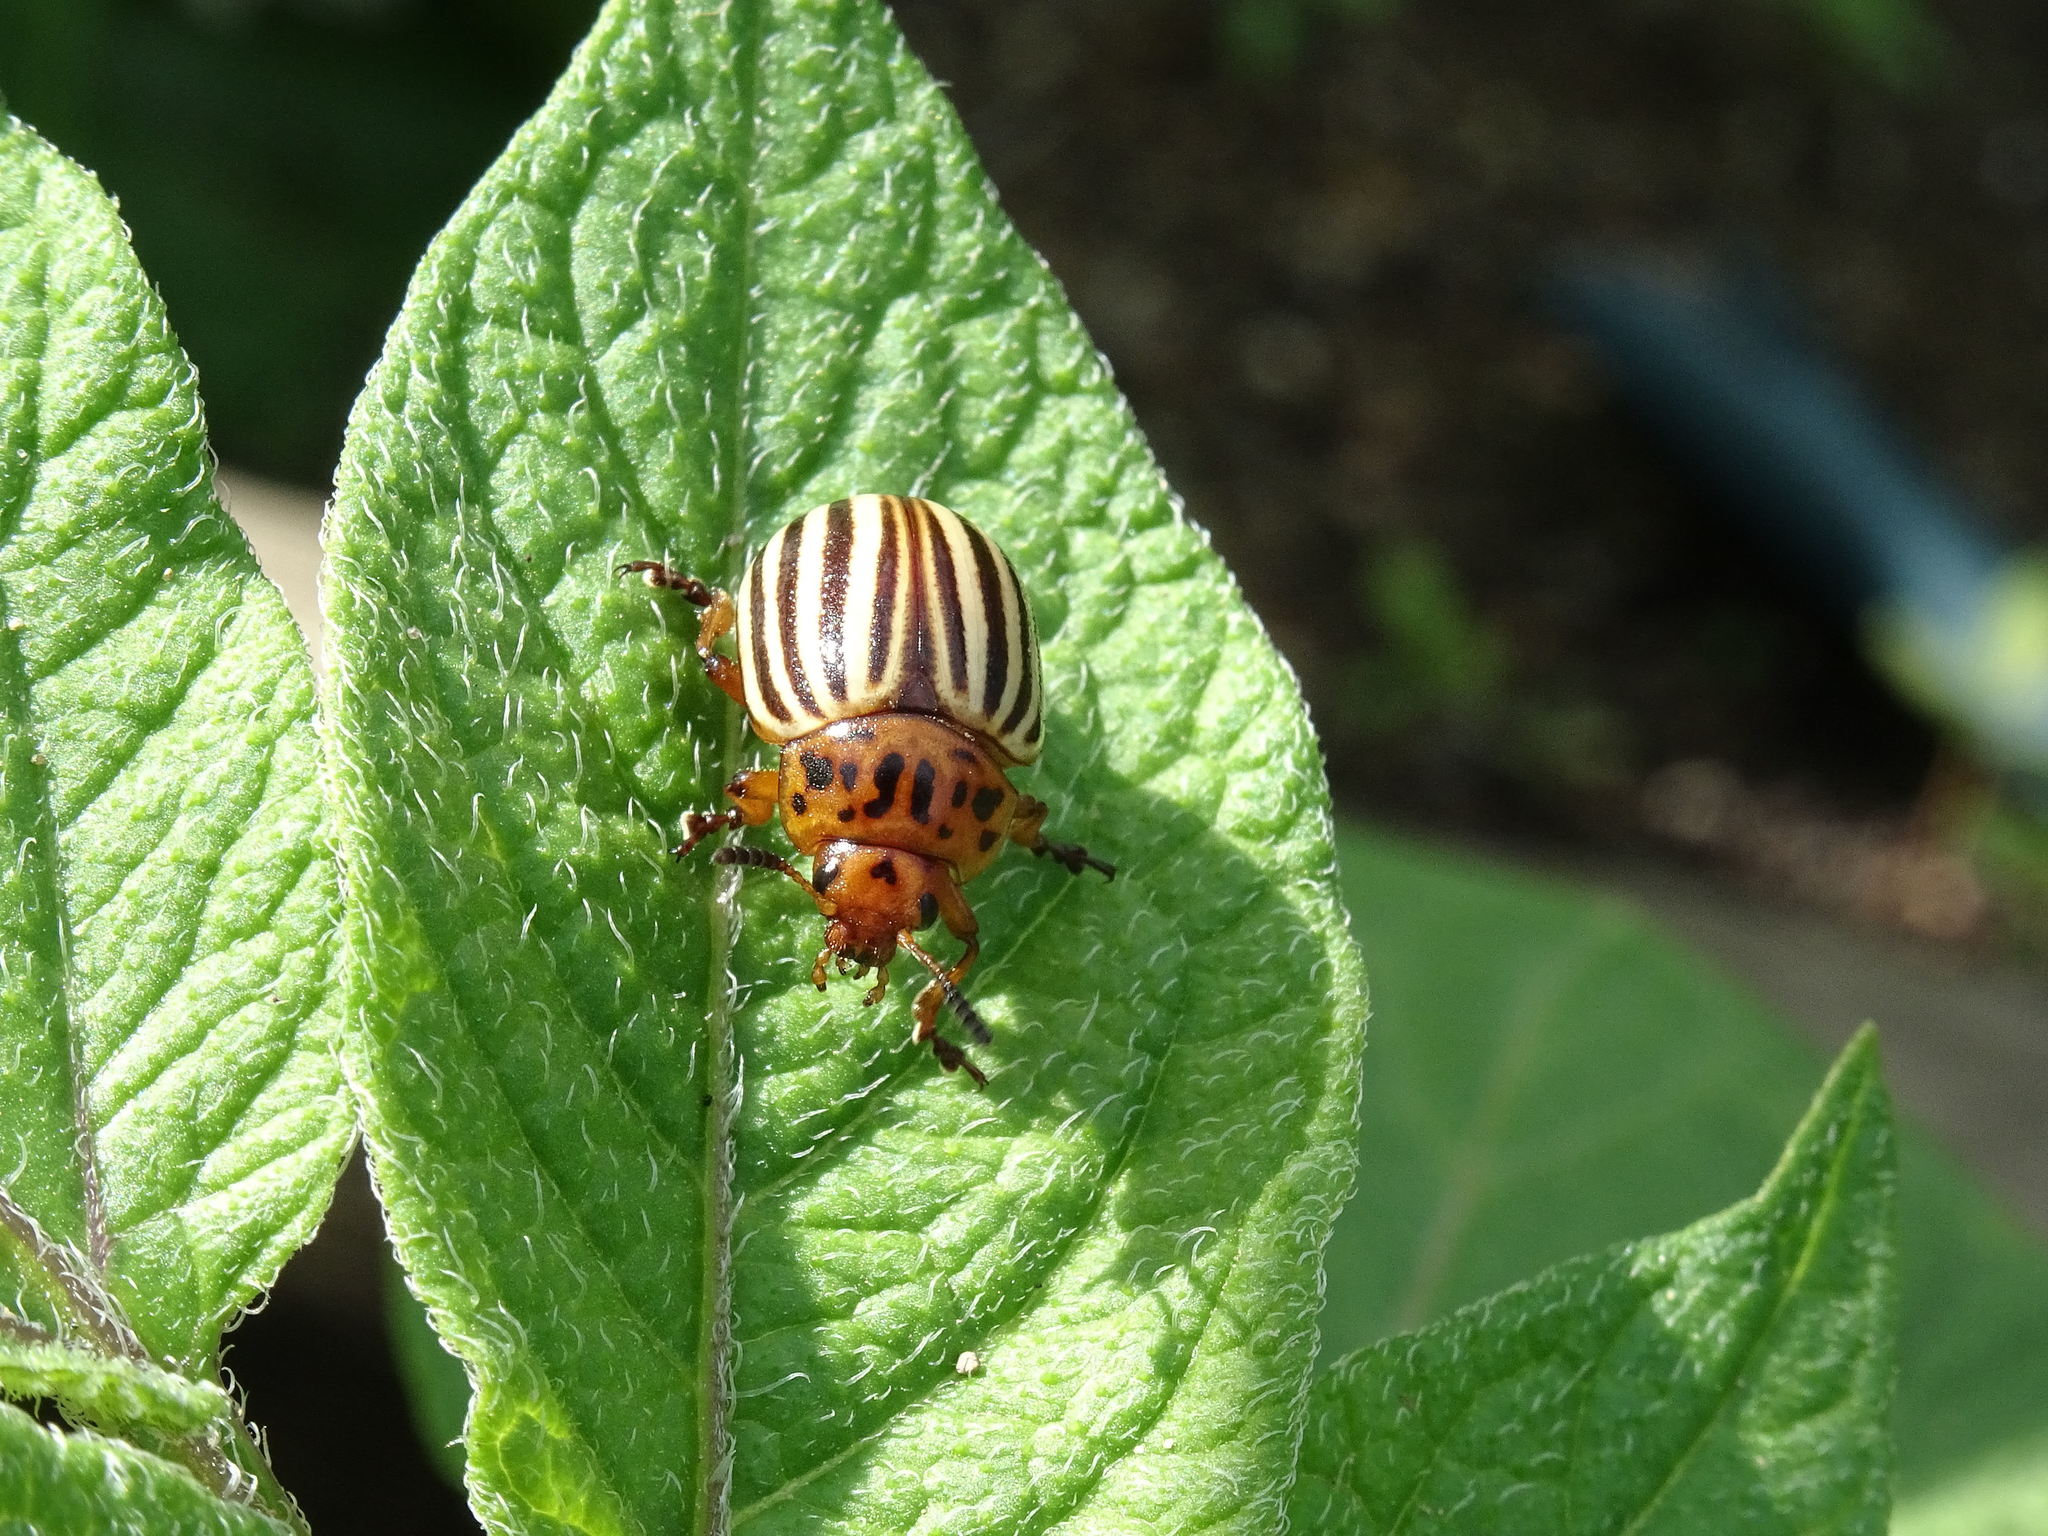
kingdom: Animalia
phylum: Arthropoda
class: Insecta
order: Coleoptera
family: Chrysomelidae
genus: Leptinotarsa
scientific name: Leptinotarsa decemlineata
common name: Colorado potato beetle
